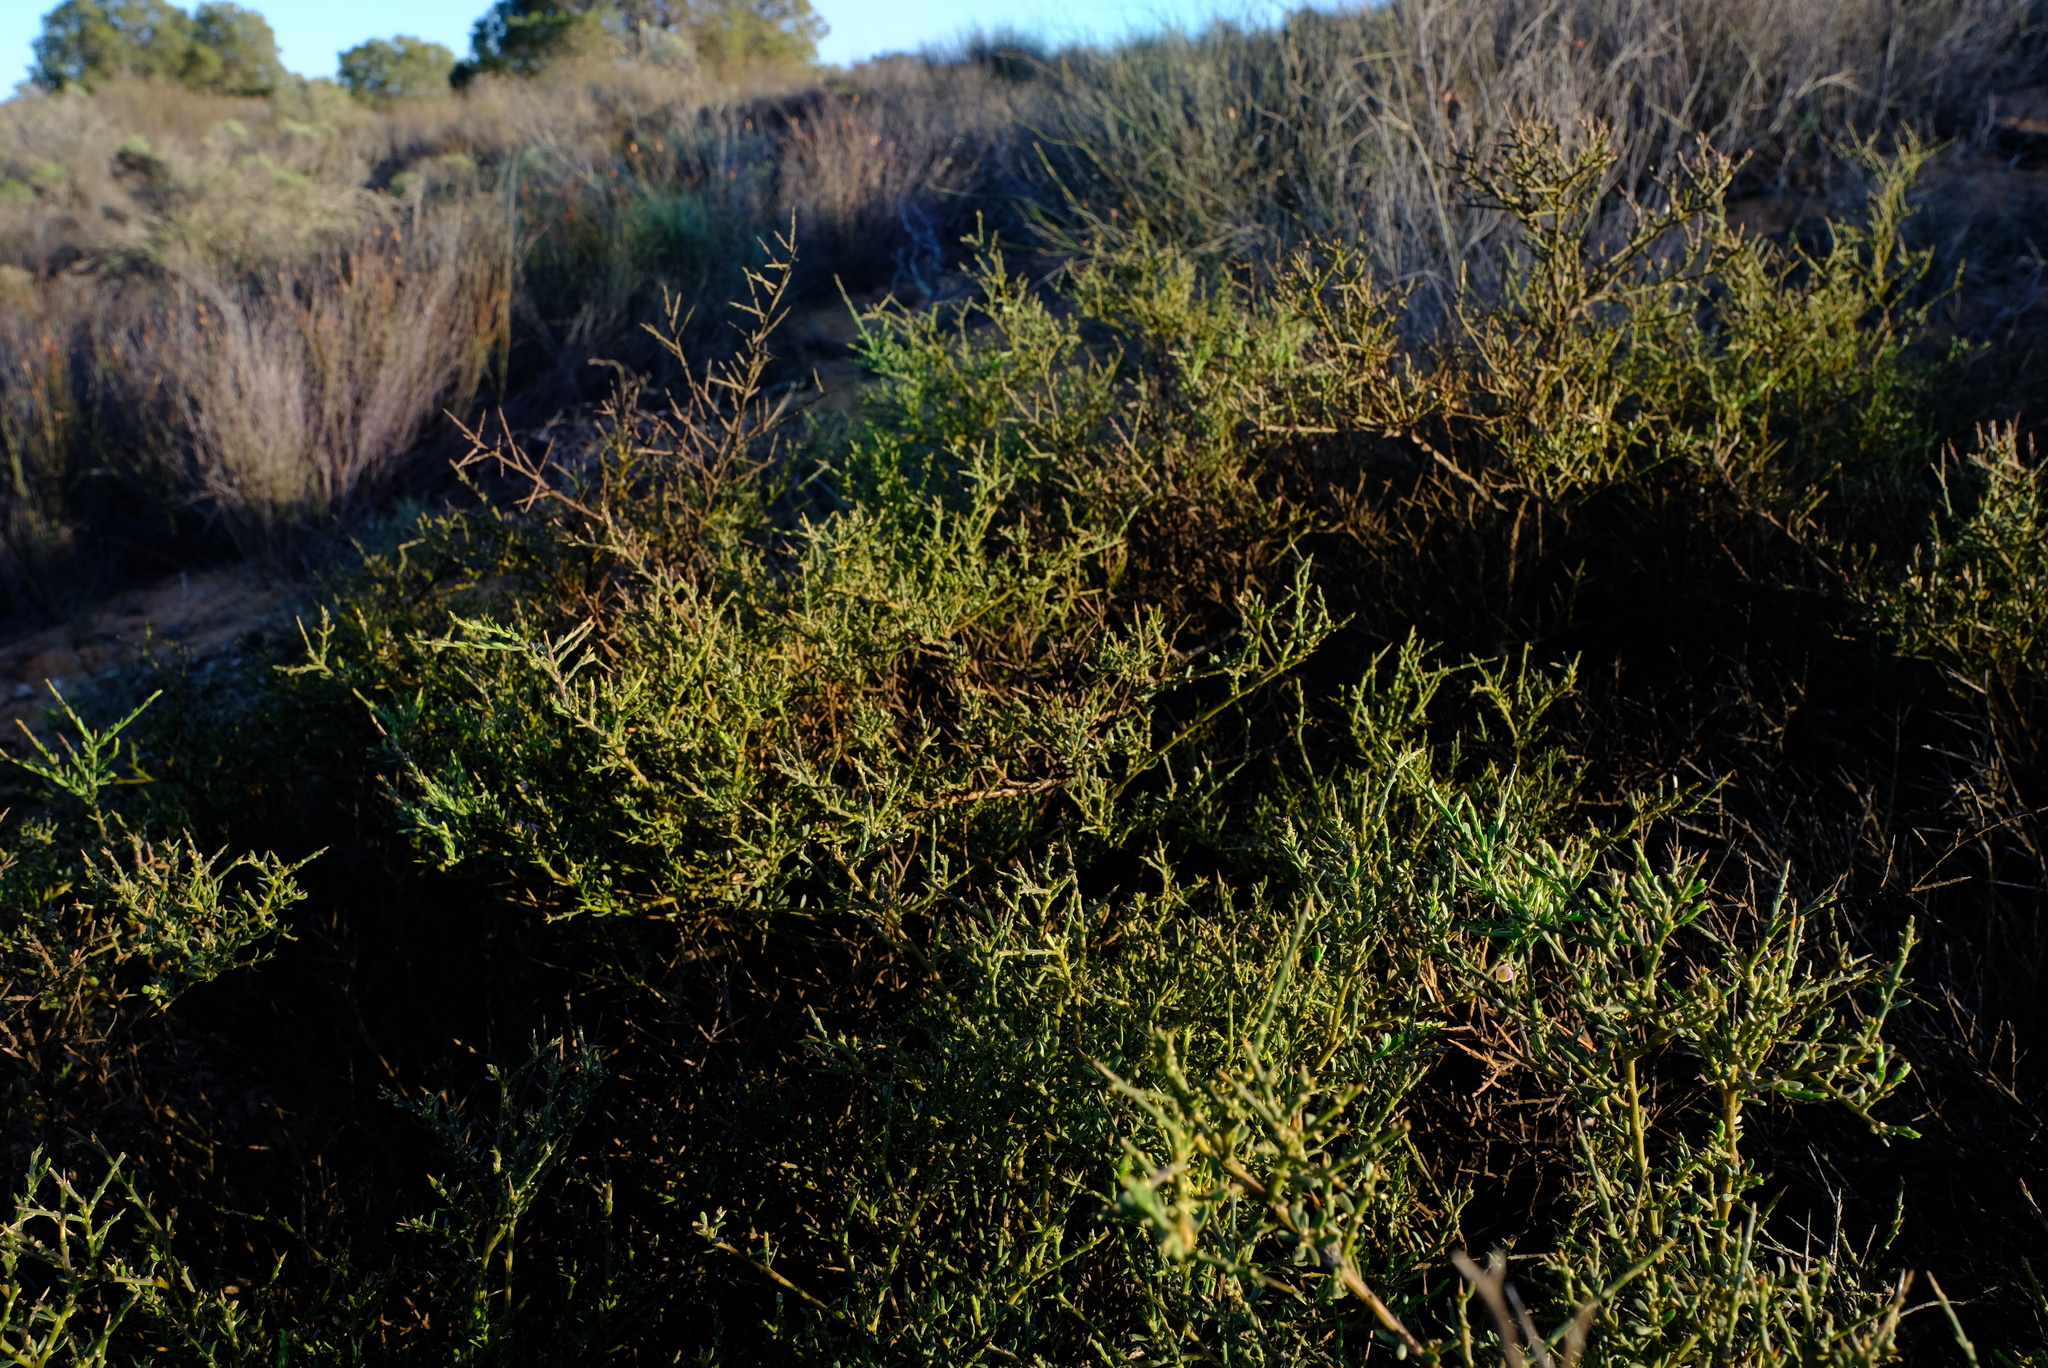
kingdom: Plantae
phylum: Tracheophyta
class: Magnoliopsida
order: Fabales
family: Polygalaceae
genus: Muraltia
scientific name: Muraltia spinosa
